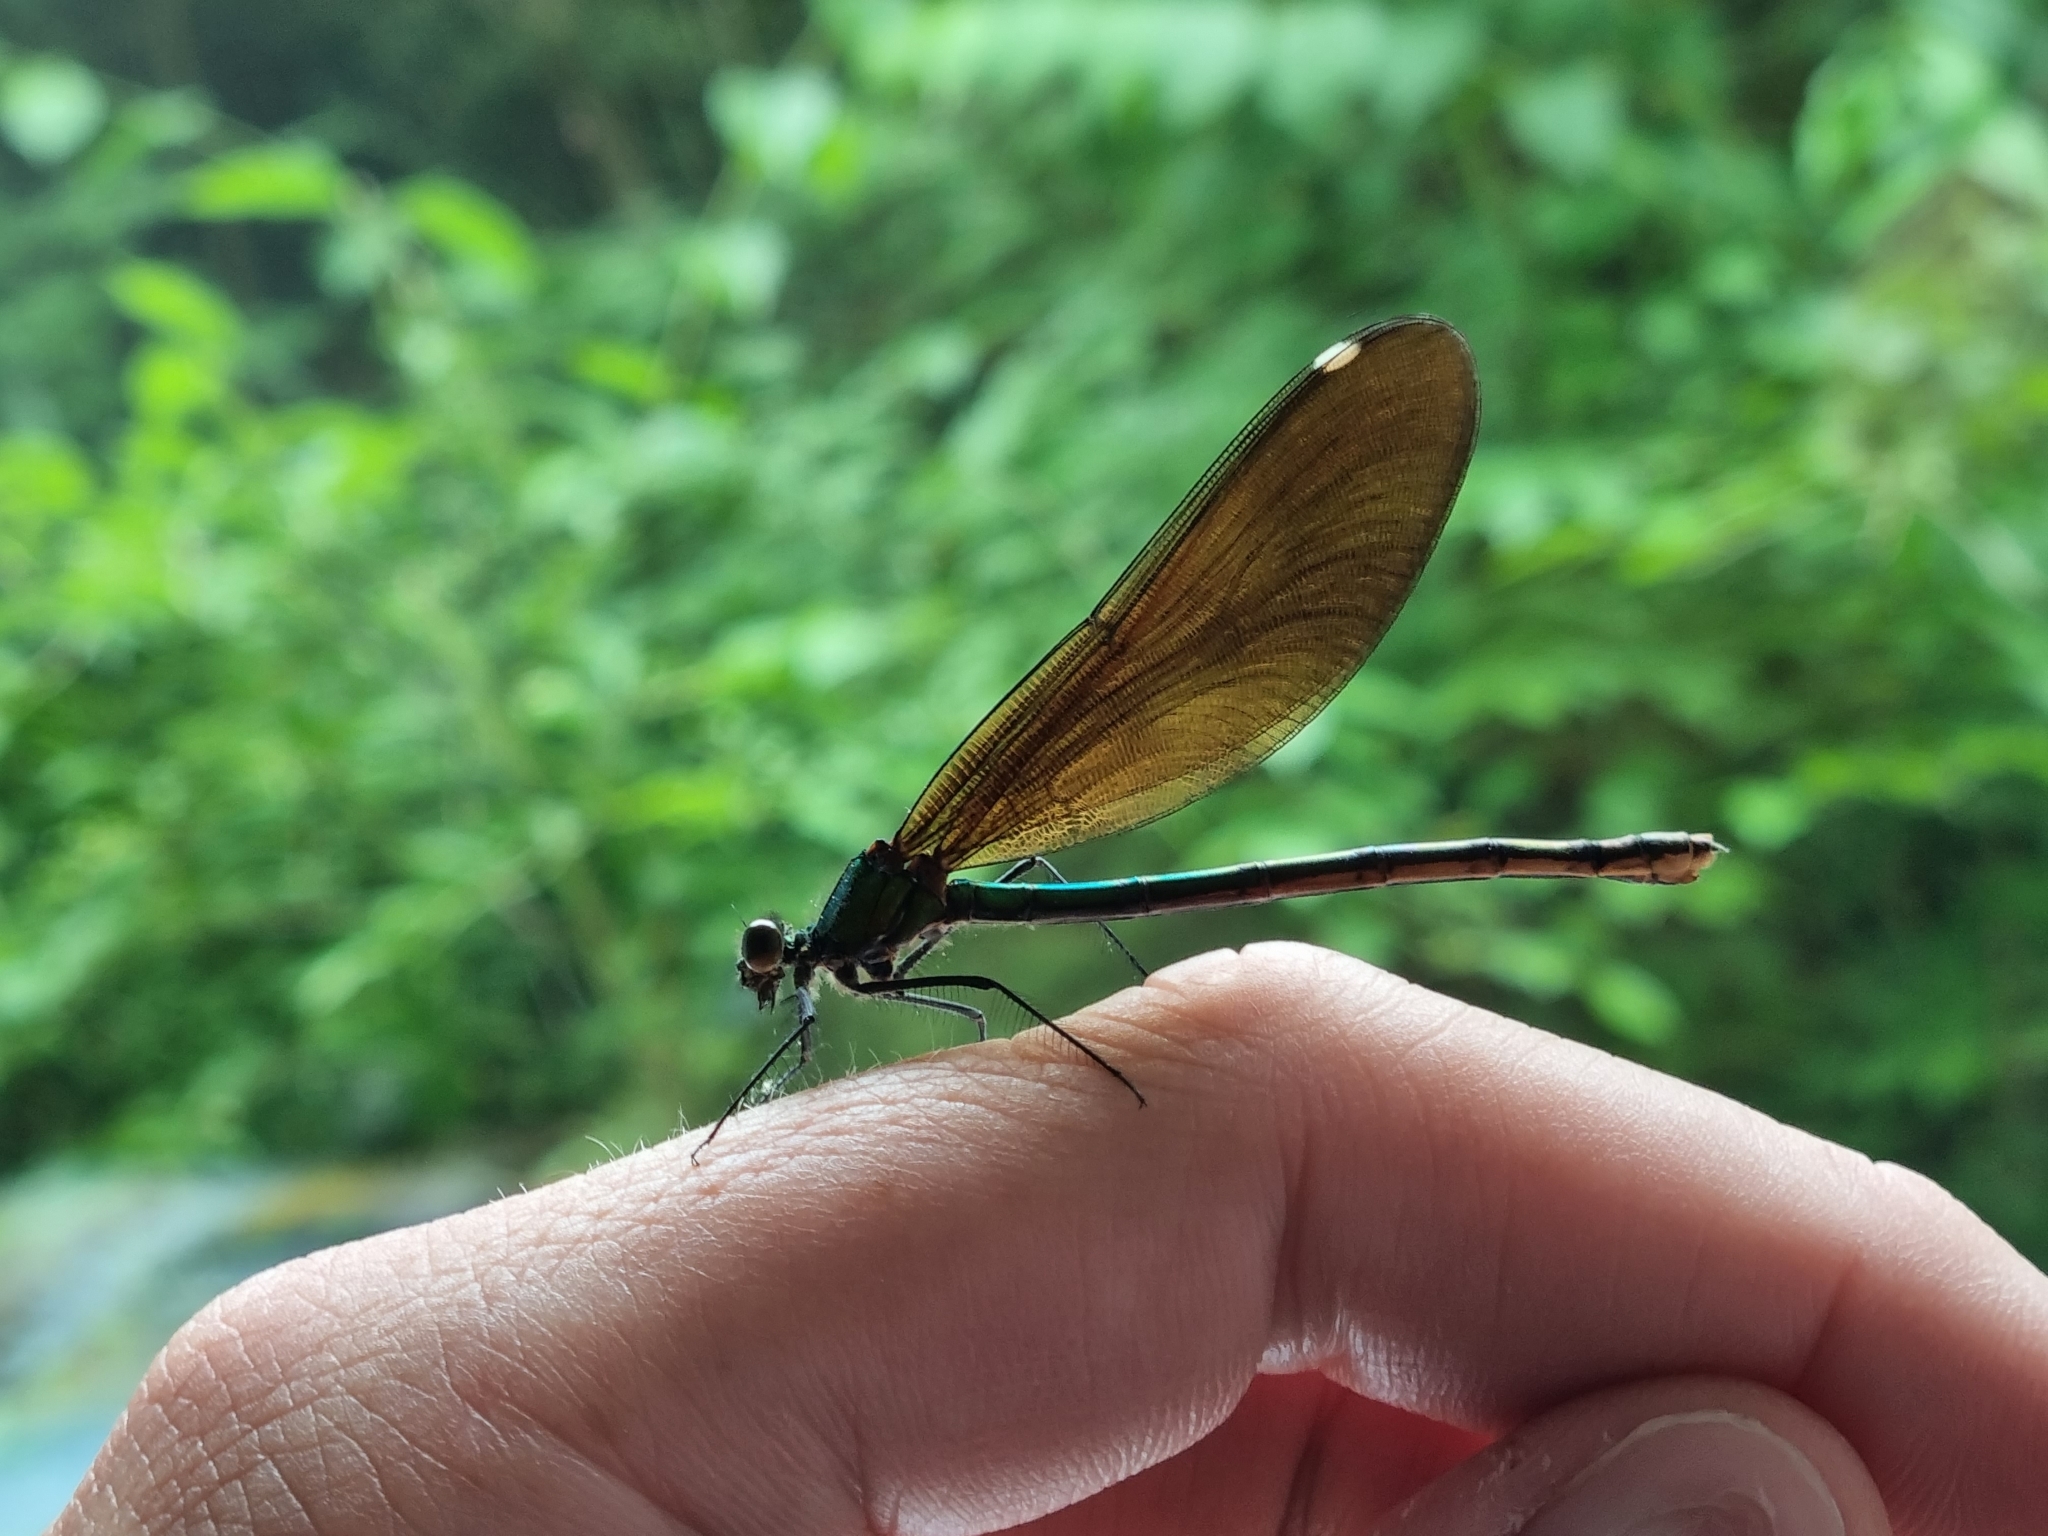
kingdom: Animalia
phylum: Arthropoda
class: Insecta
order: Odonata
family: Calopterygidae
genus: Calopteryx
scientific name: Calopteryx virgo
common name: Beautiful demoiselle
